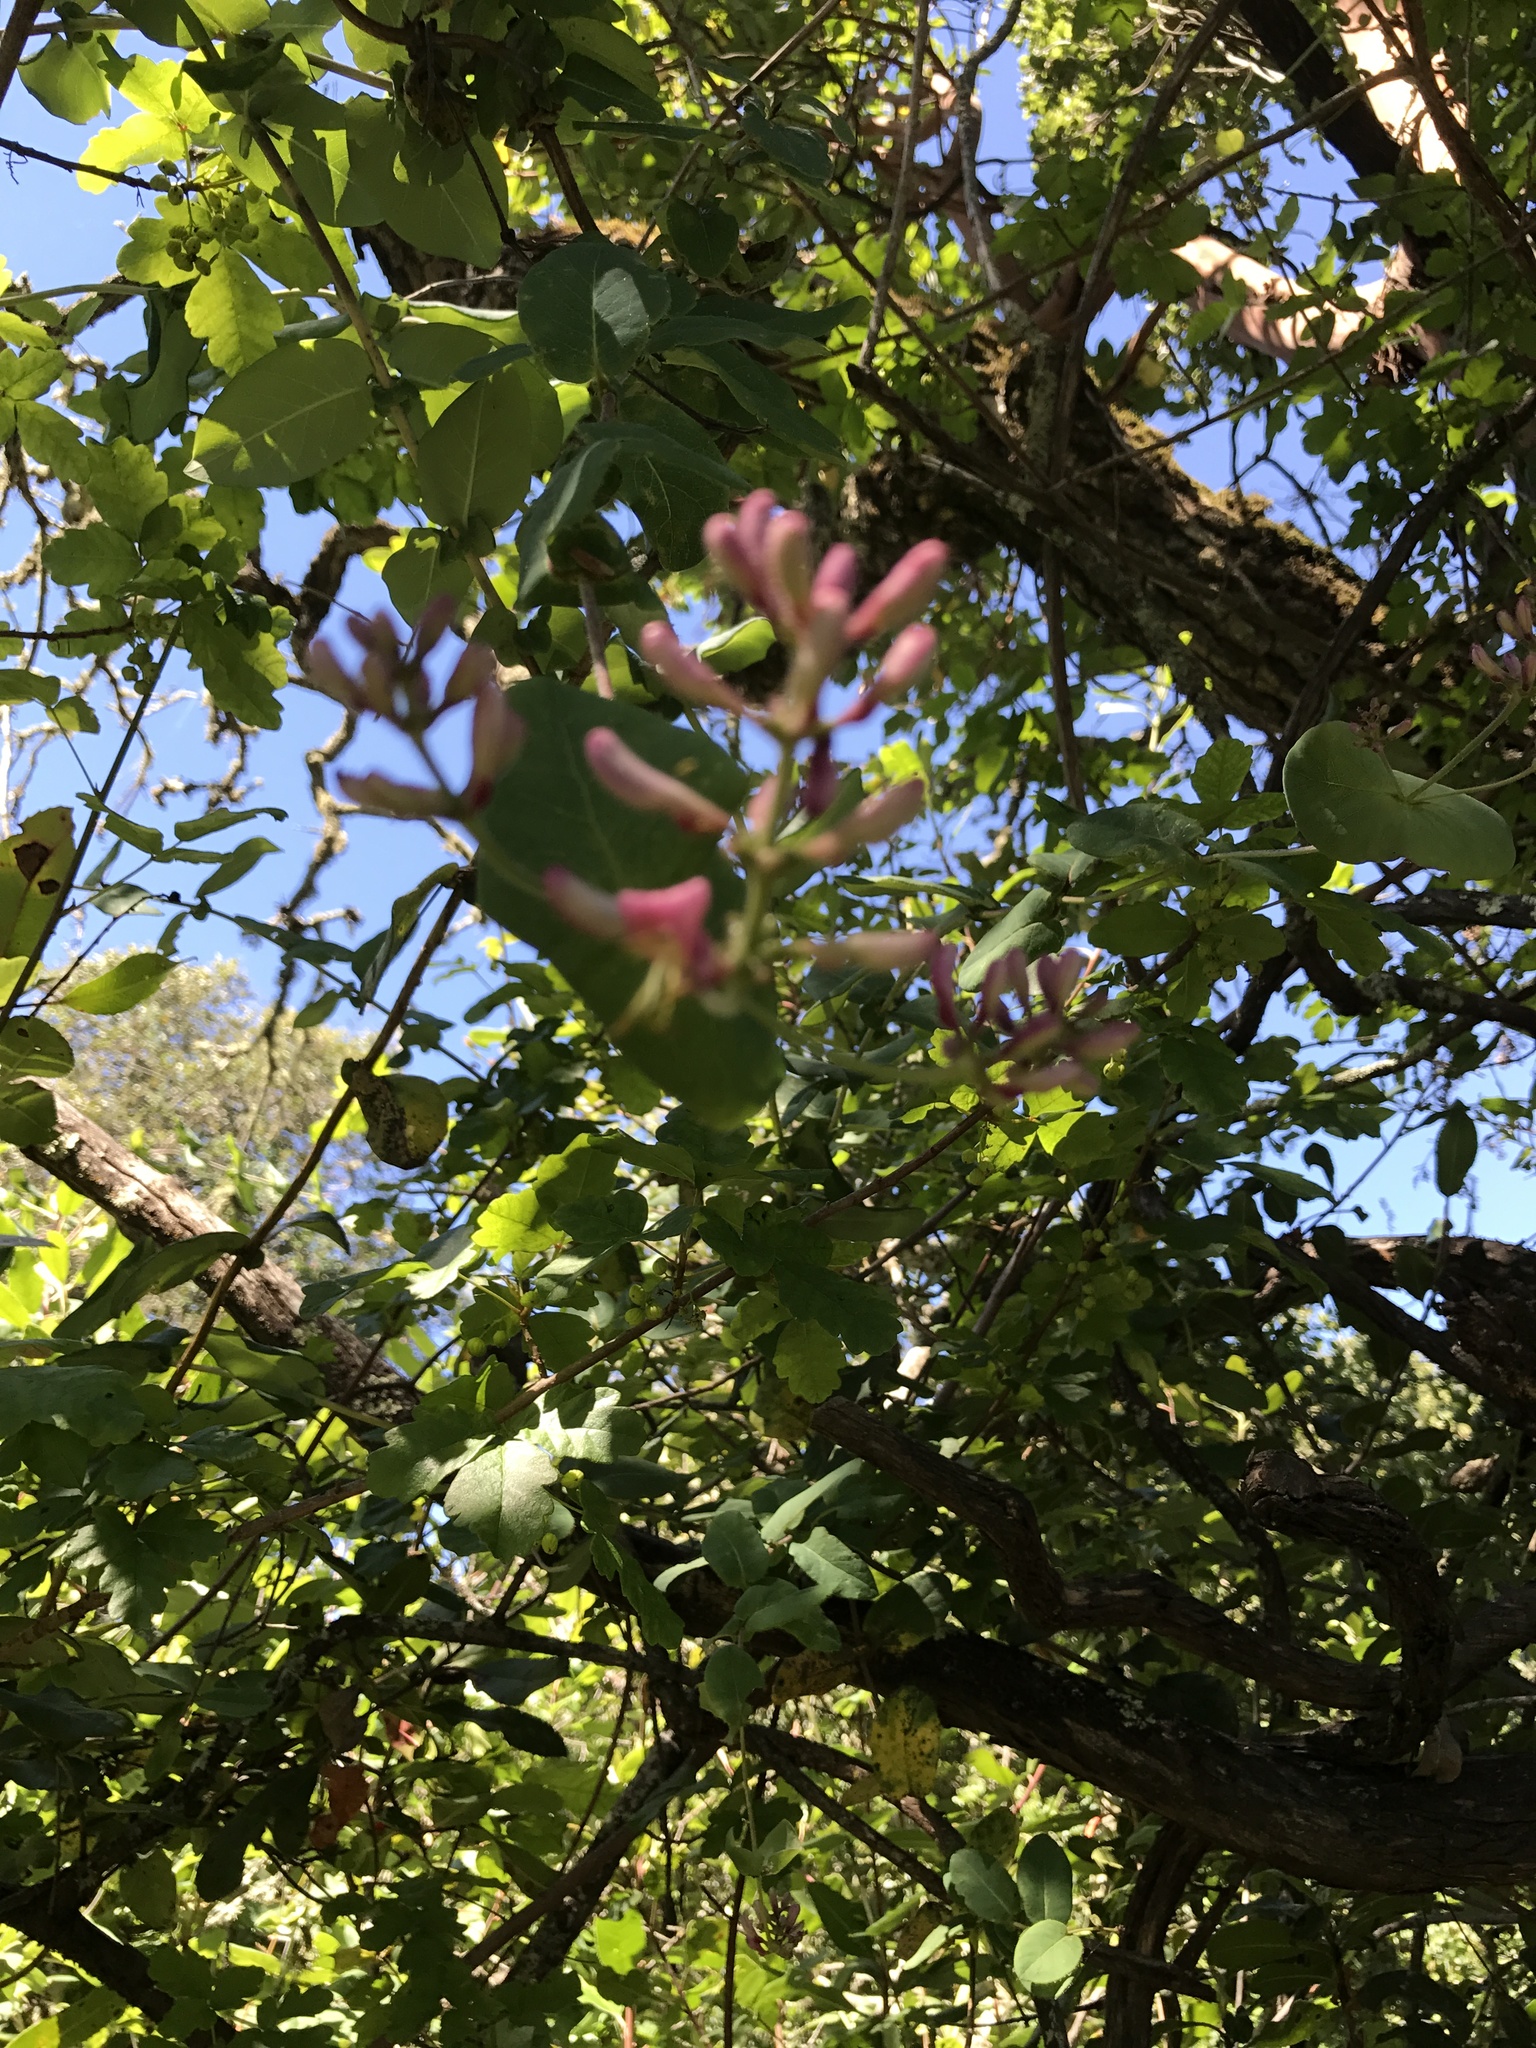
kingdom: Plantae
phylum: Tracheophyta
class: Magnoliopsida
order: Dipsacales
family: Caprifoliaceae
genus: Lonicera
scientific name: Lonicera hispidula
